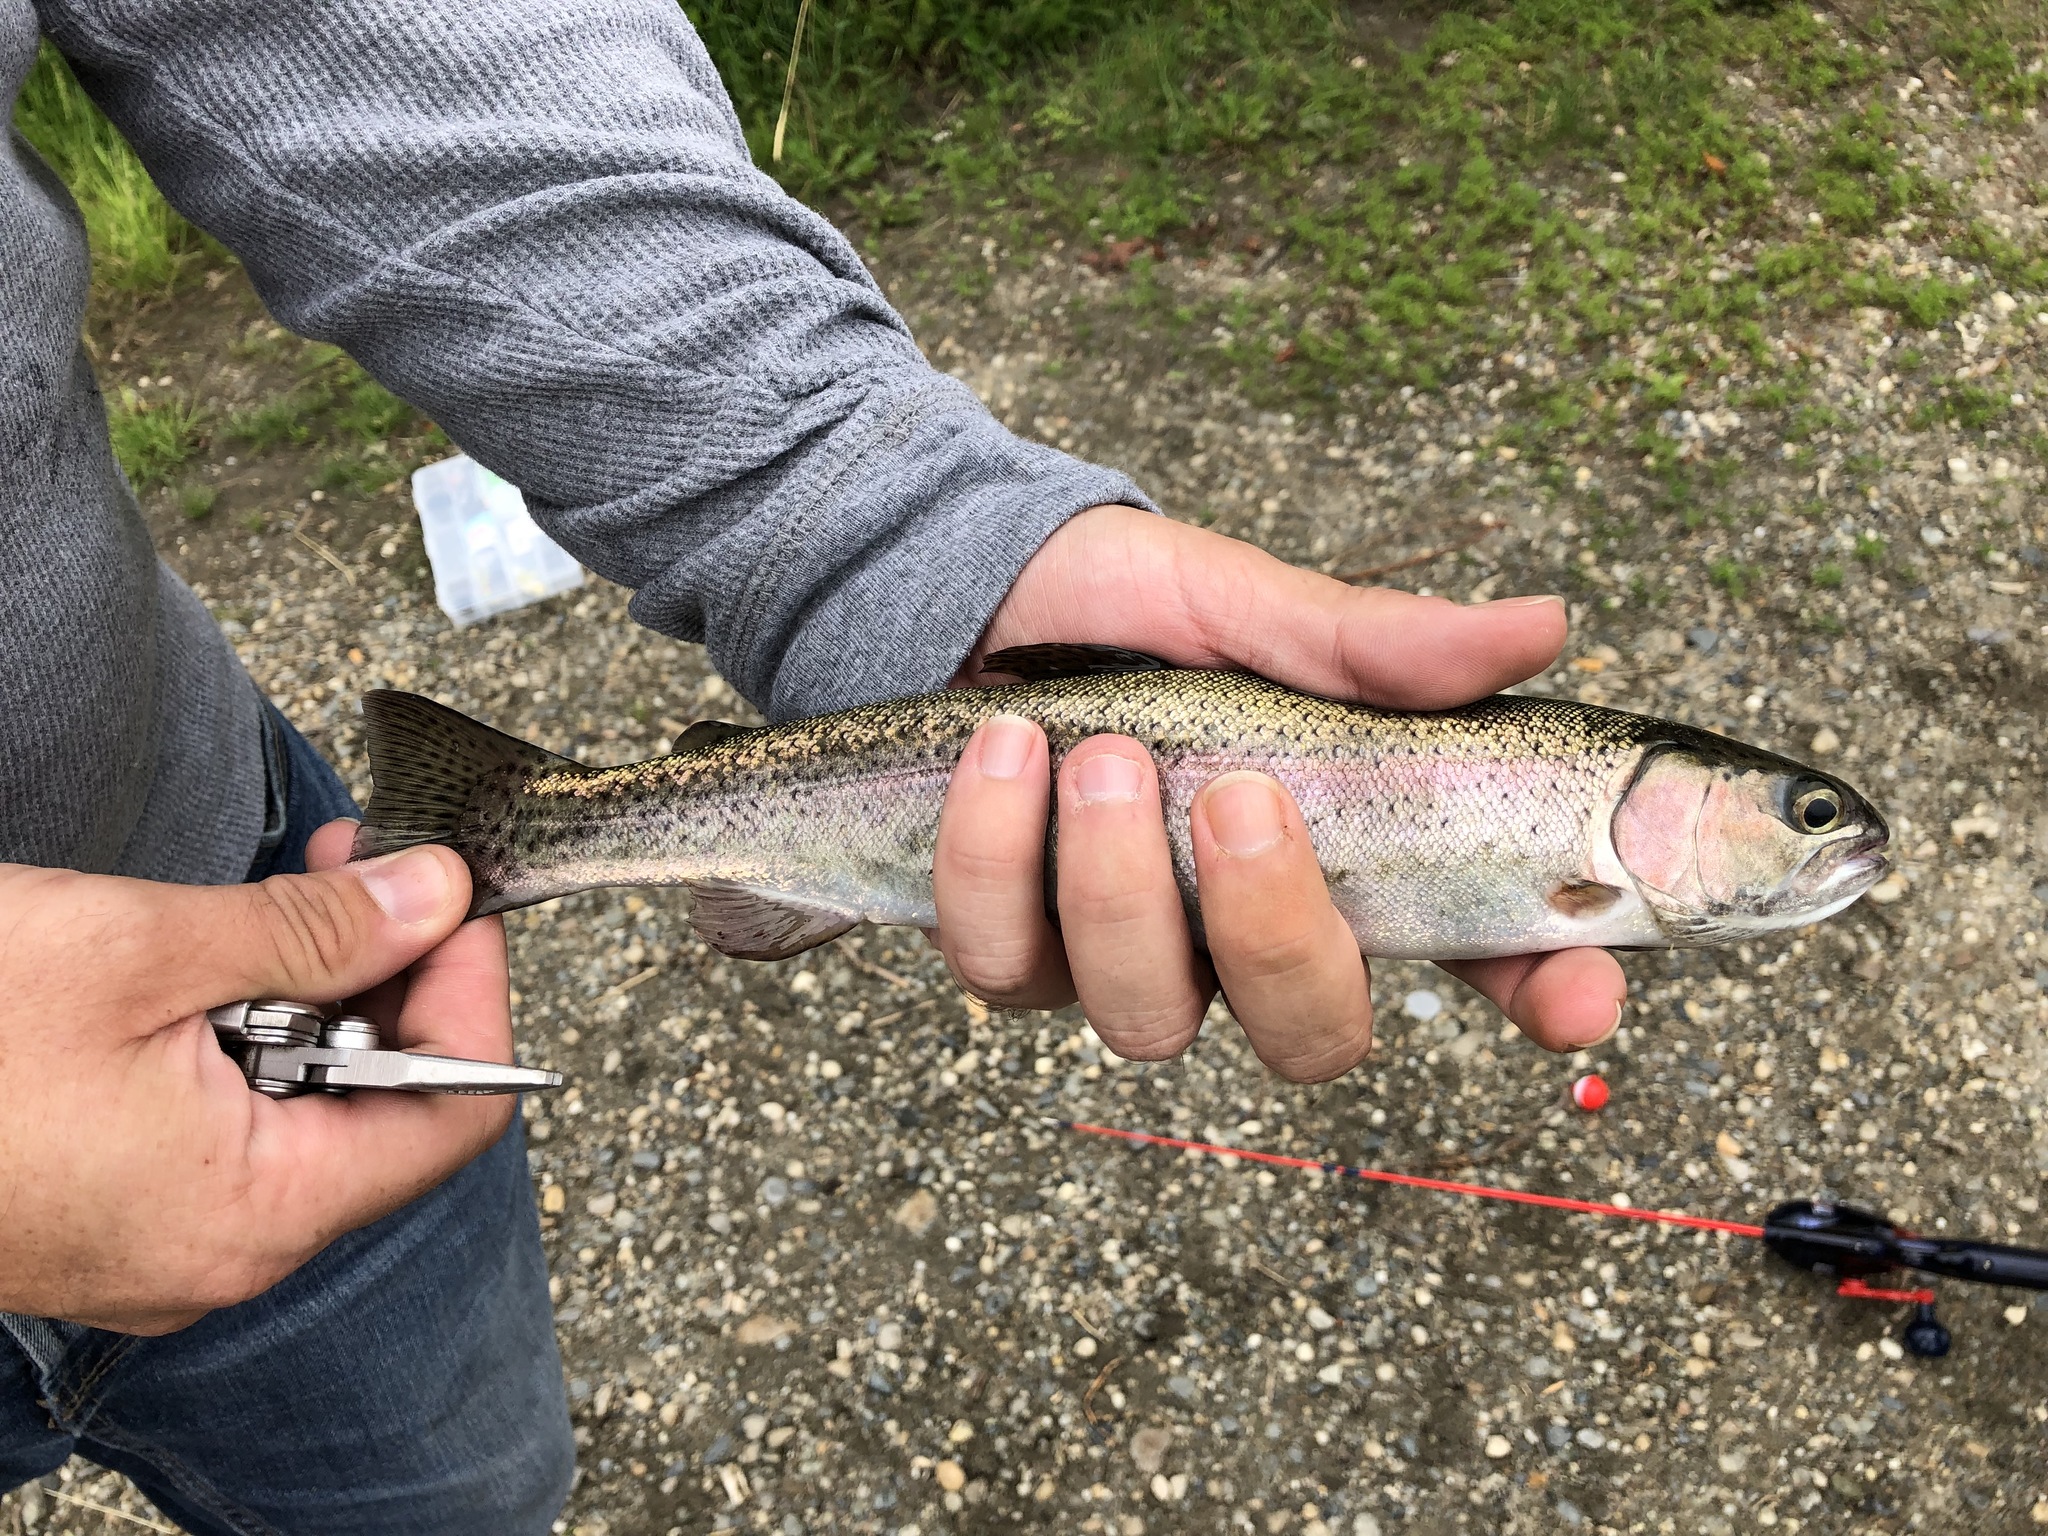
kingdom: Animalia
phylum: Chordata
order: Salmoniformes
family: Salmonidae
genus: Oncorhynchus
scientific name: Oncorhynchus mykiss
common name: Rainbow trout
